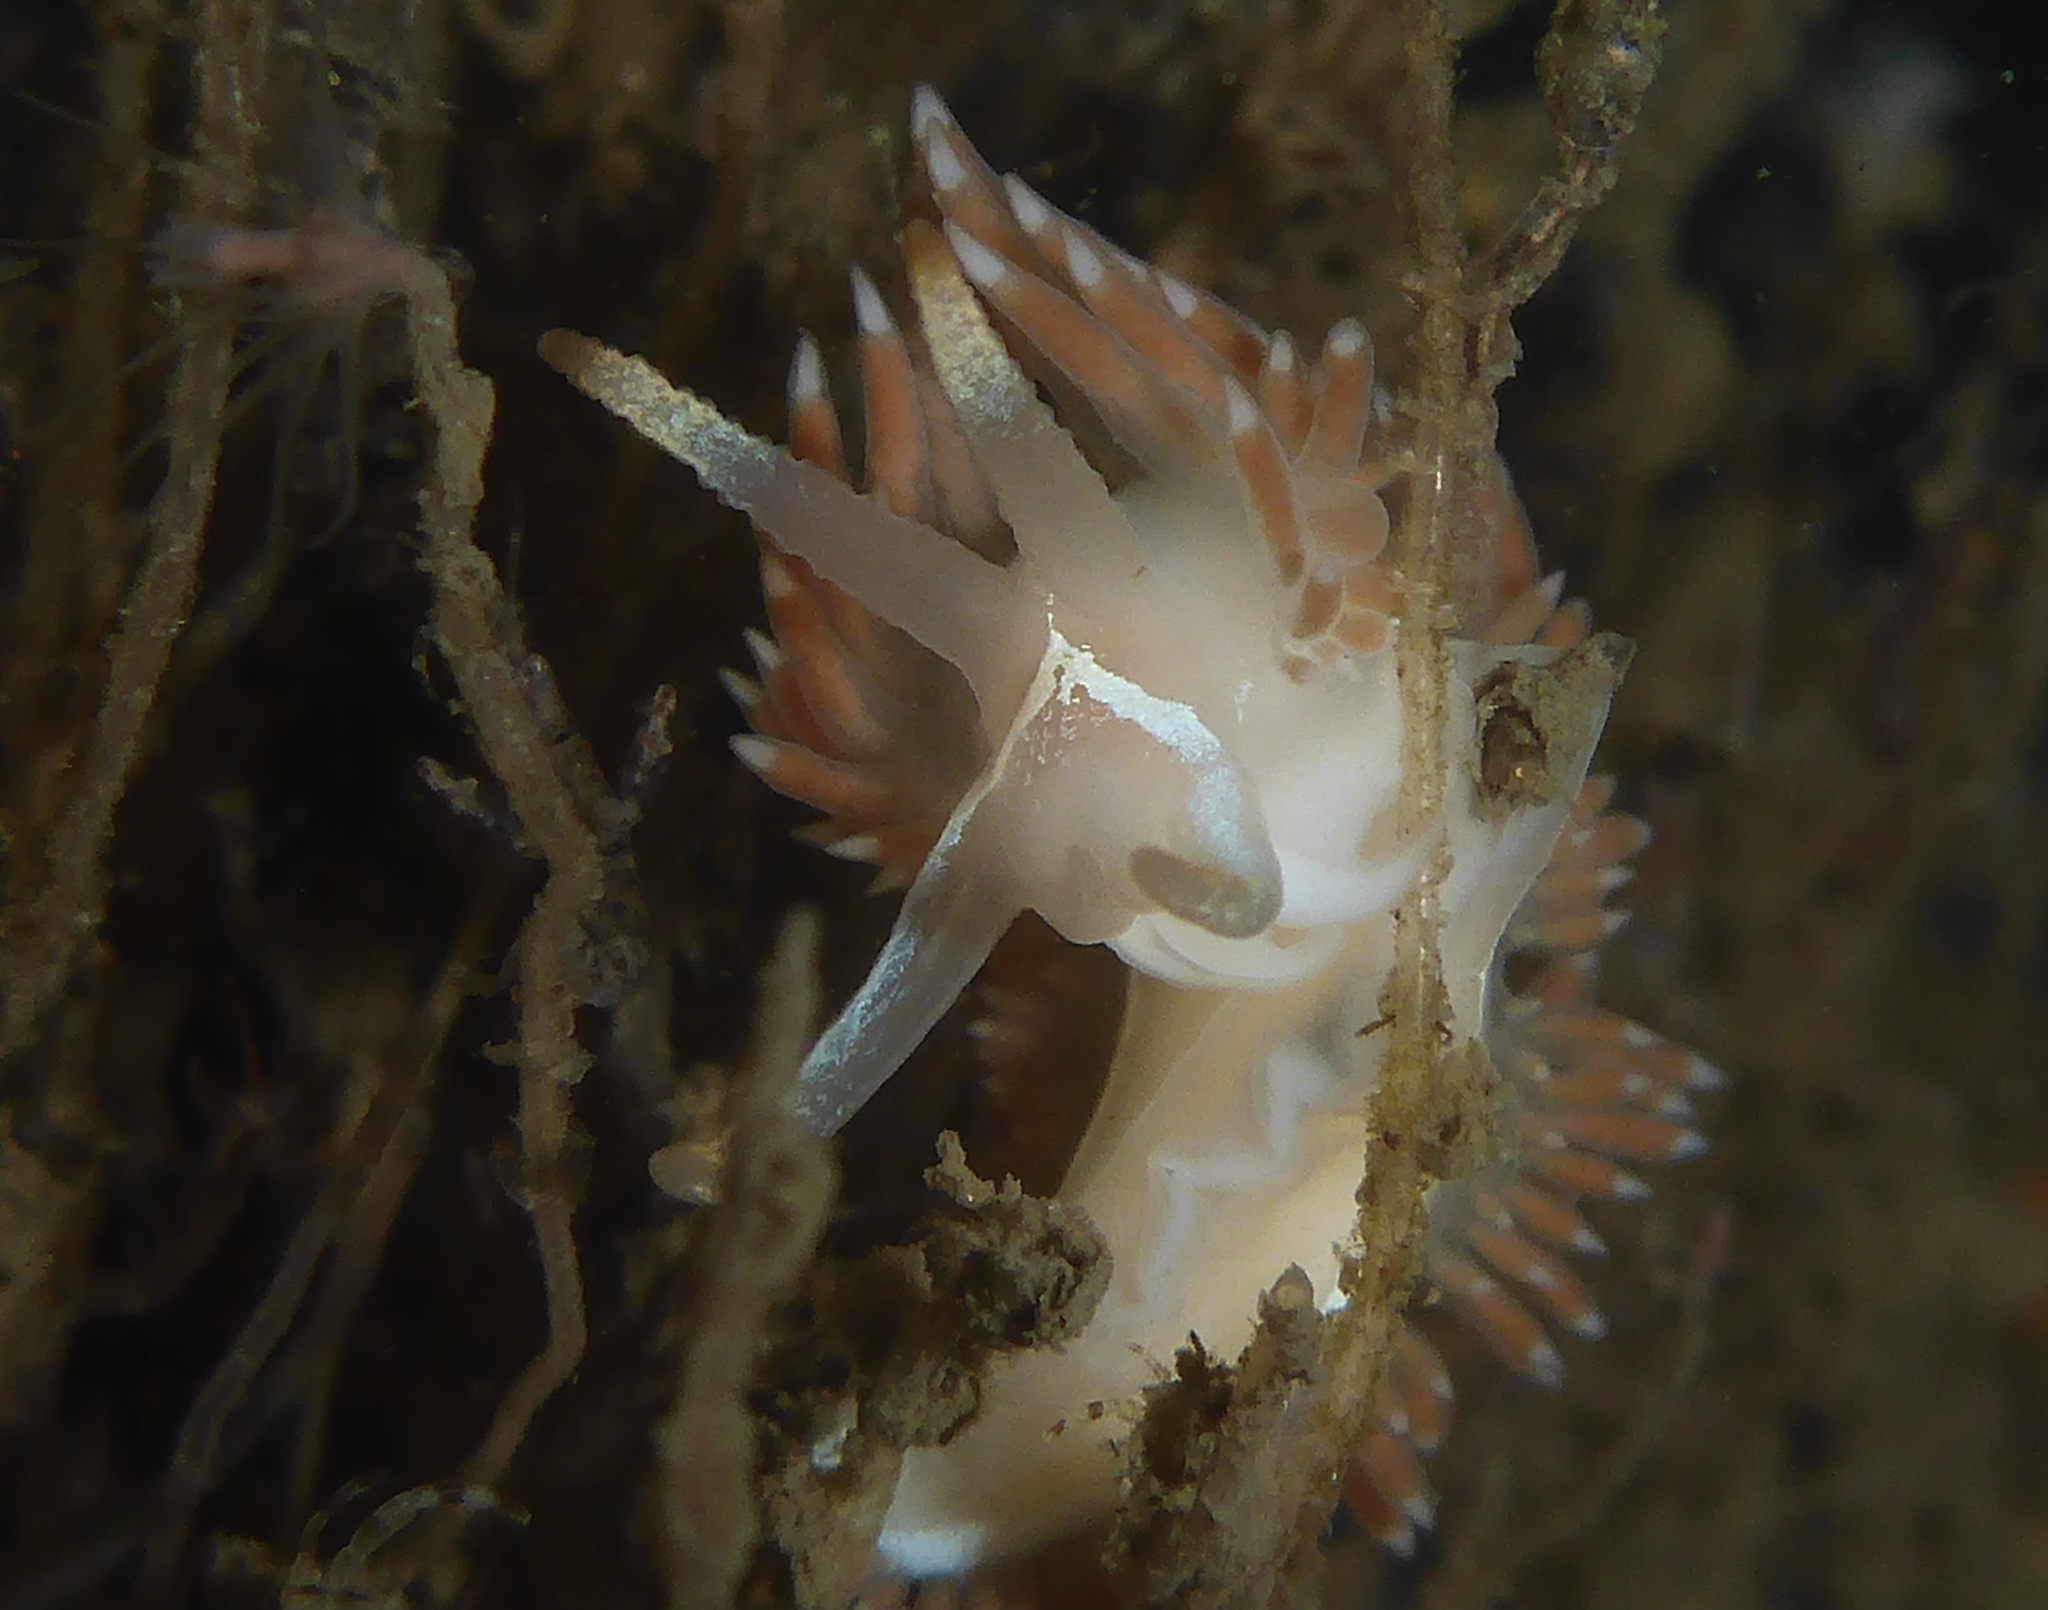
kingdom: Animalia
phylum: Mollusca
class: Gastropoda
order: Nudibranchia
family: Coryphellidae
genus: Coryphella
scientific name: Coryphella cooperi
